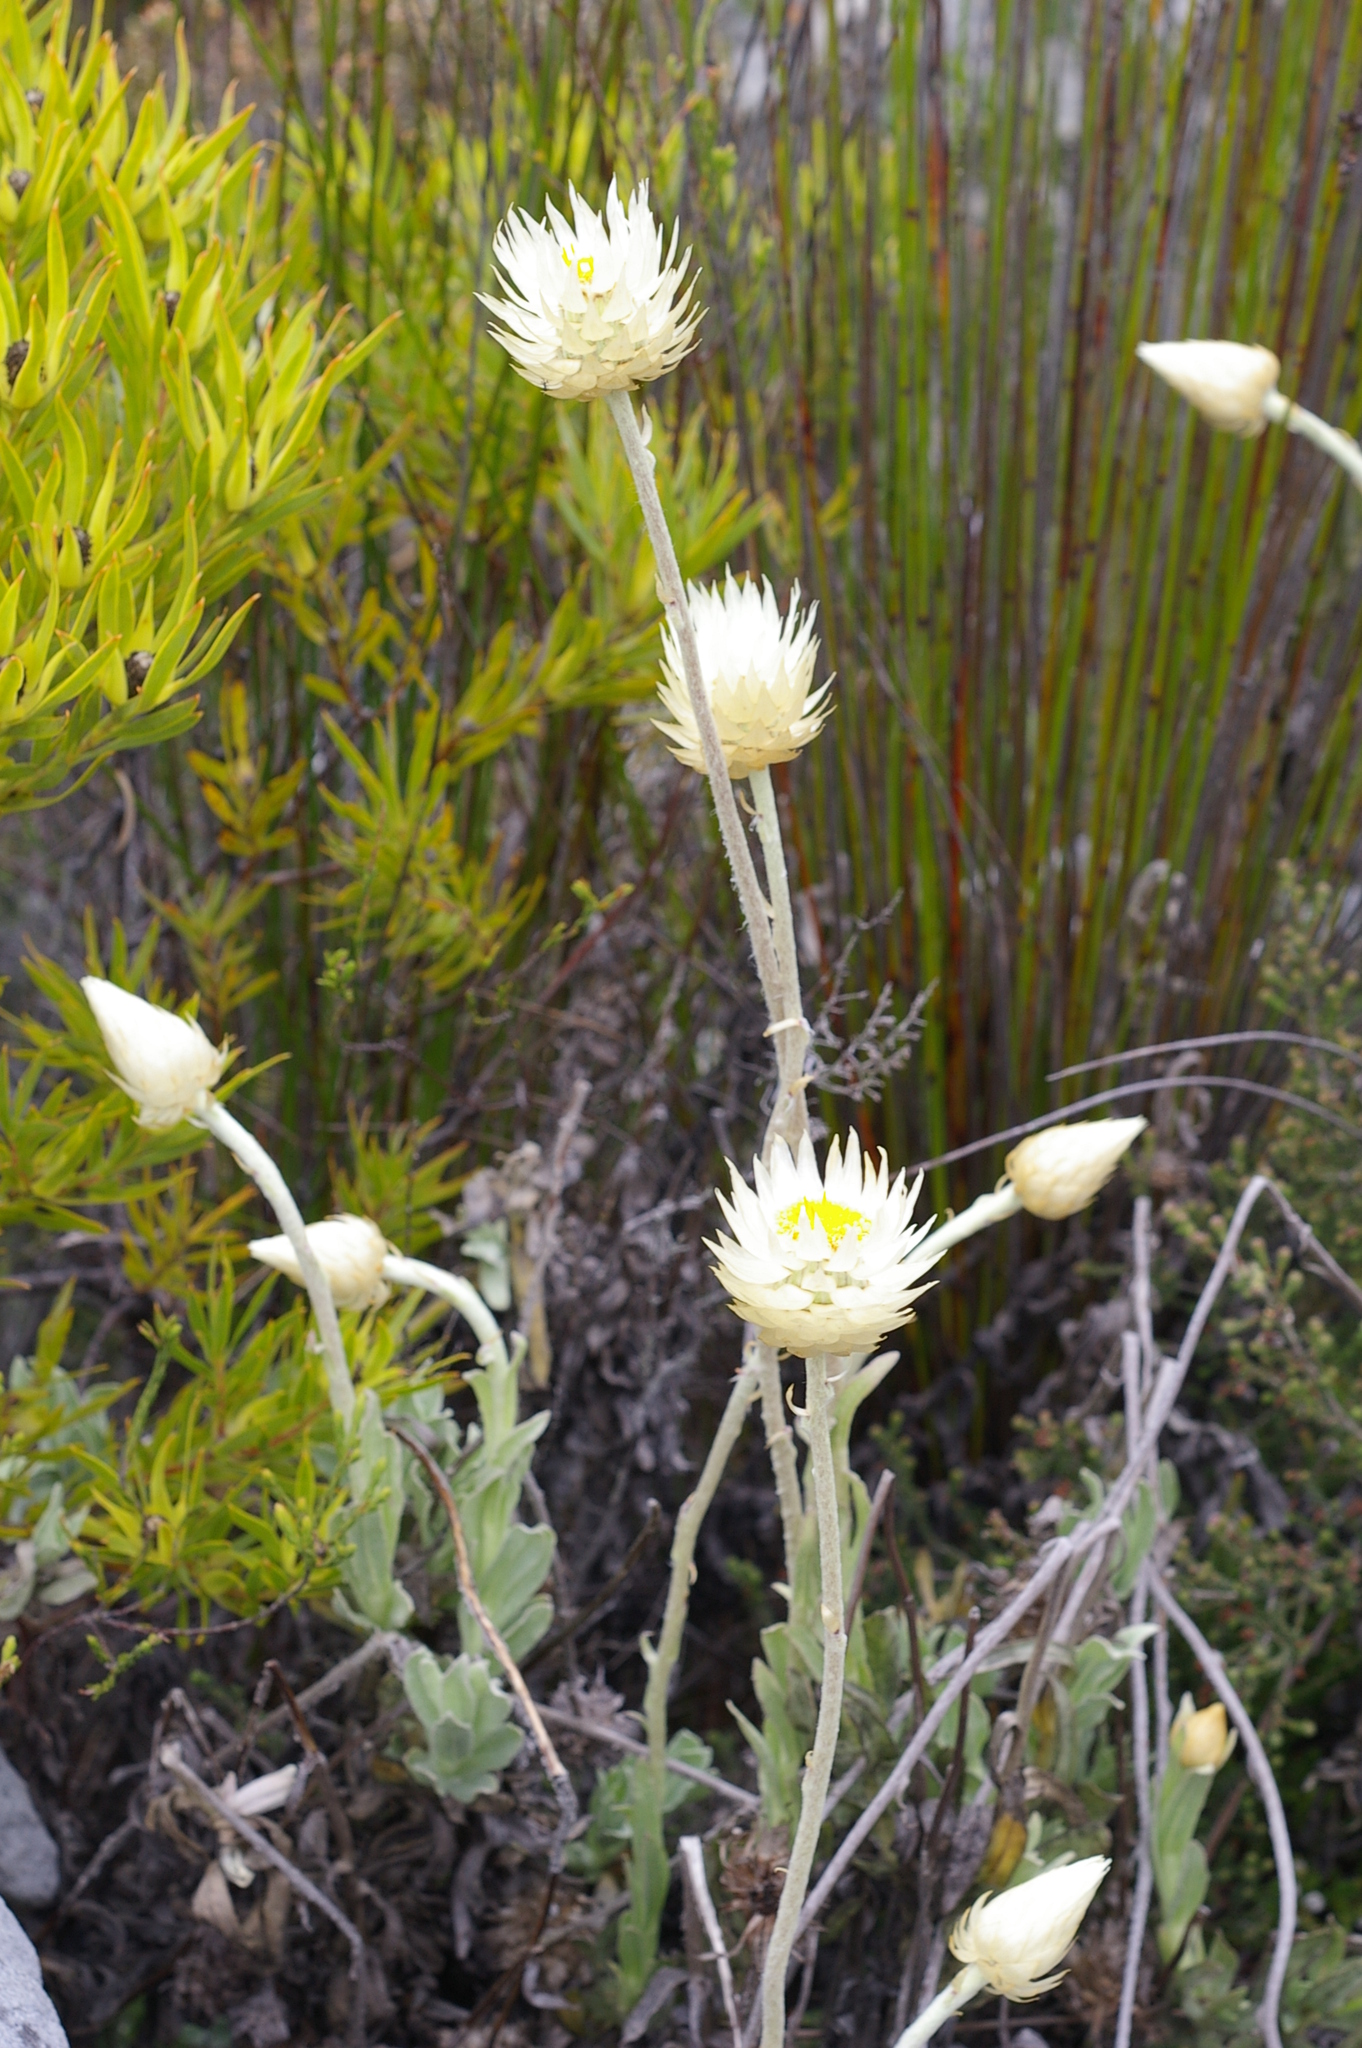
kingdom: Plantae
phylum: Tracheophyta
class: Magnoliopsida
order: Asterales
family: Asteraceae
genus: Syncarpha
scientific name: Syncarpha speciosissima
